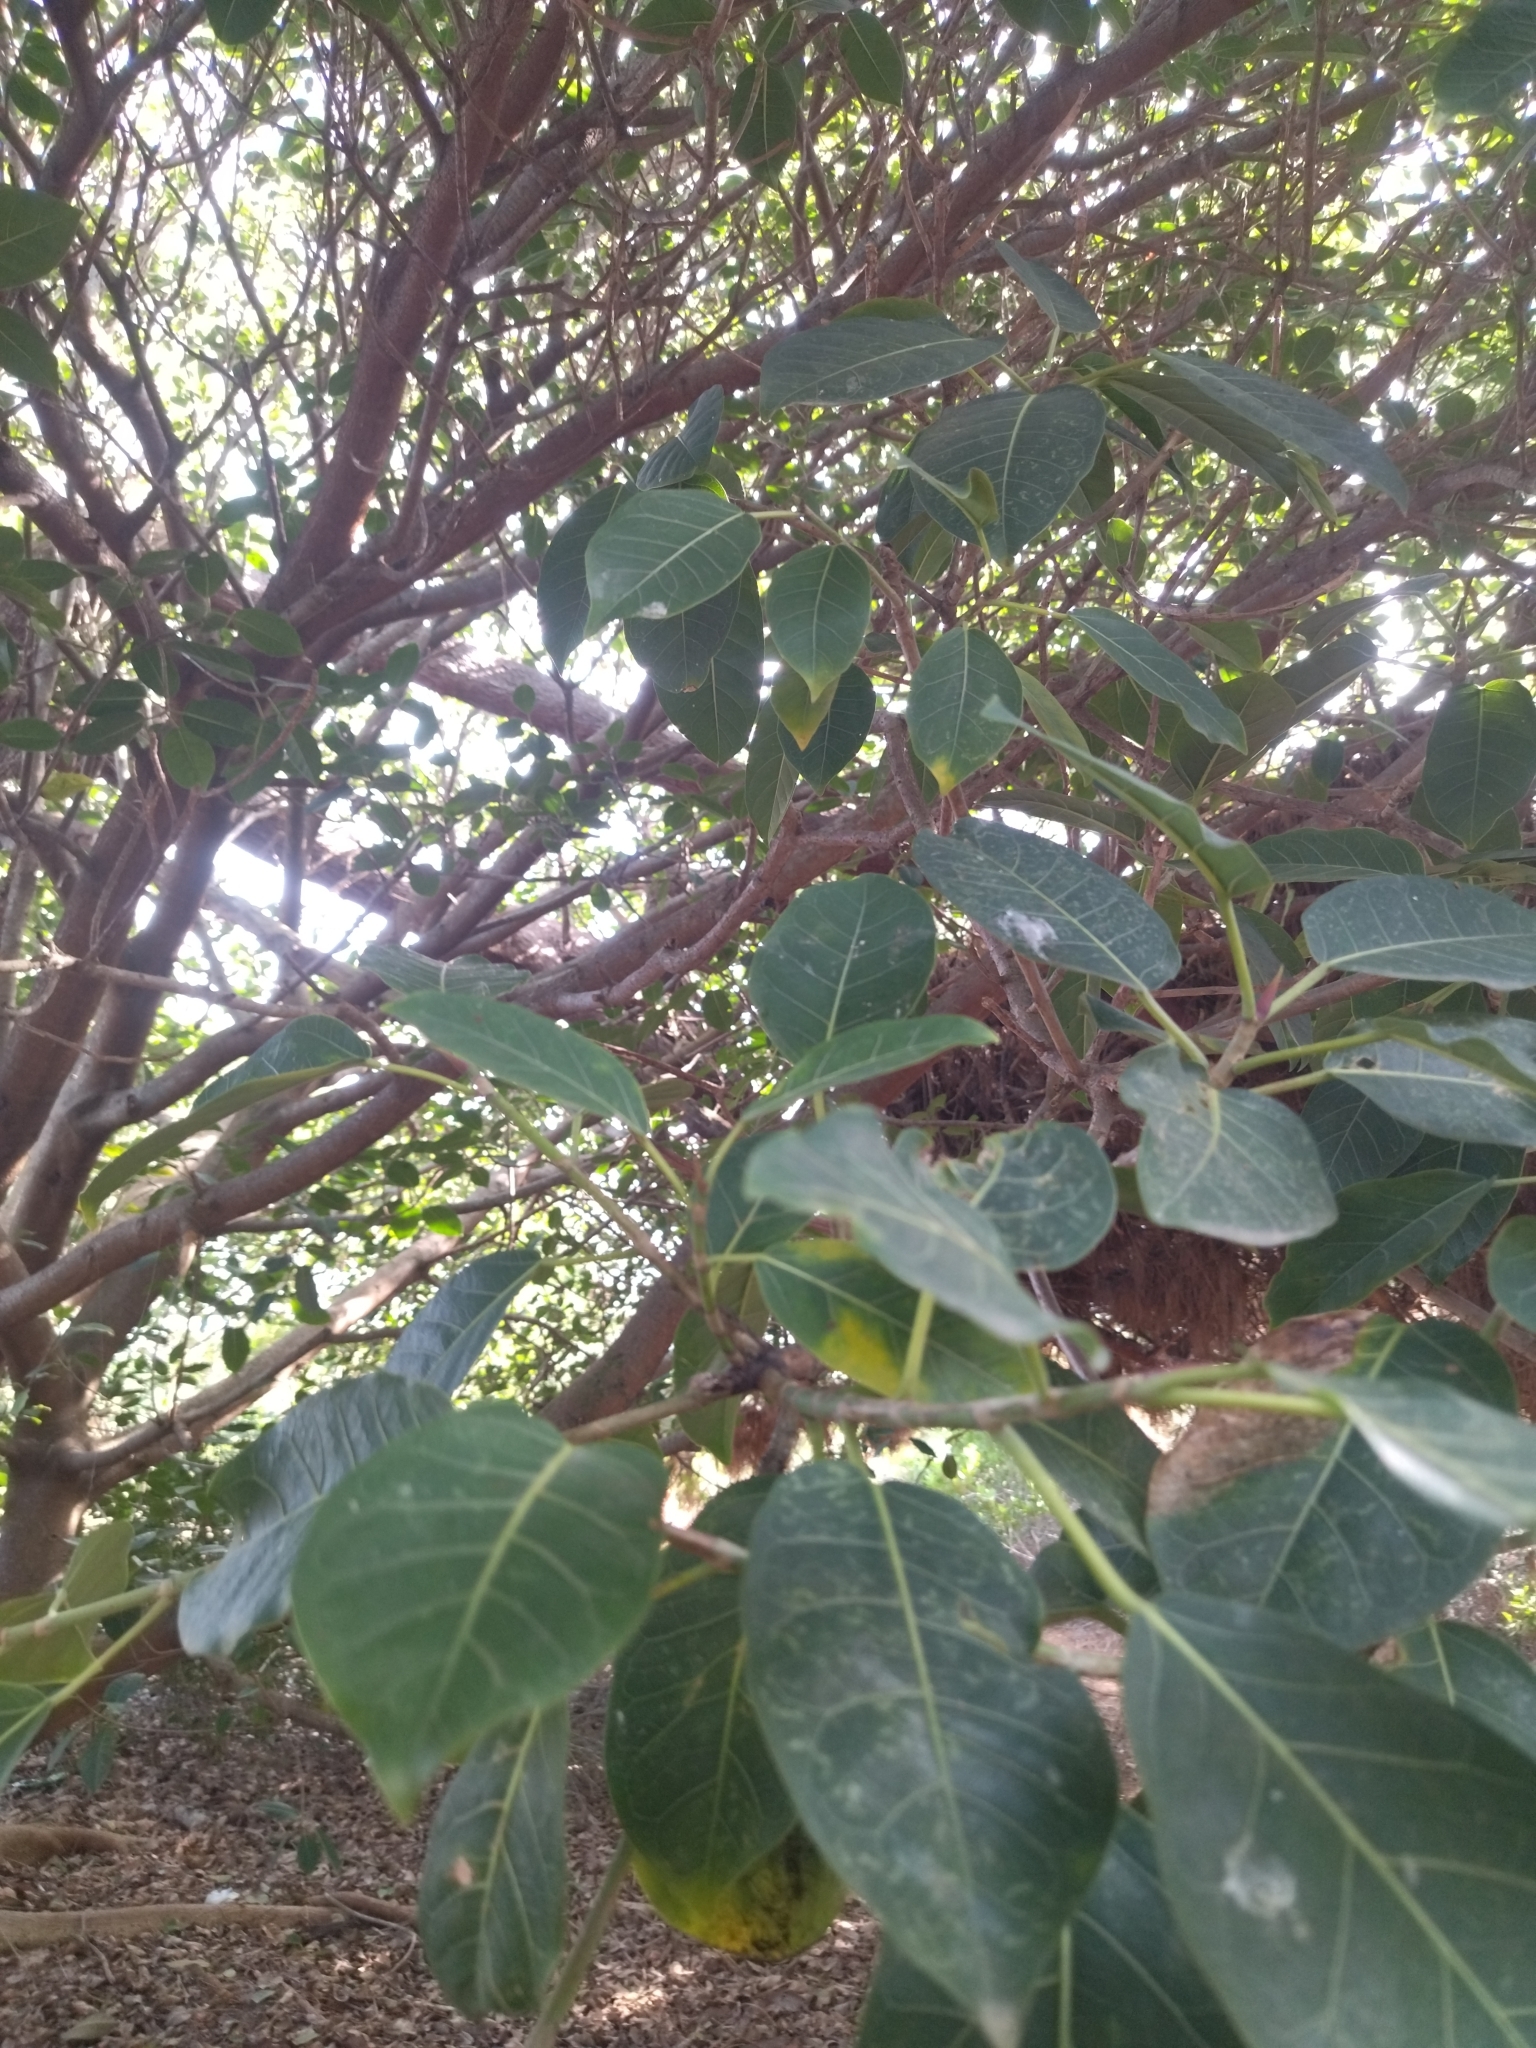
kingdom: Plantae
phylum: Tracheophyta
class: Magnoliopsida
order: Rosales
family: Moraceae
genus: Ficus
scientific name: Ficus luschnathiana
